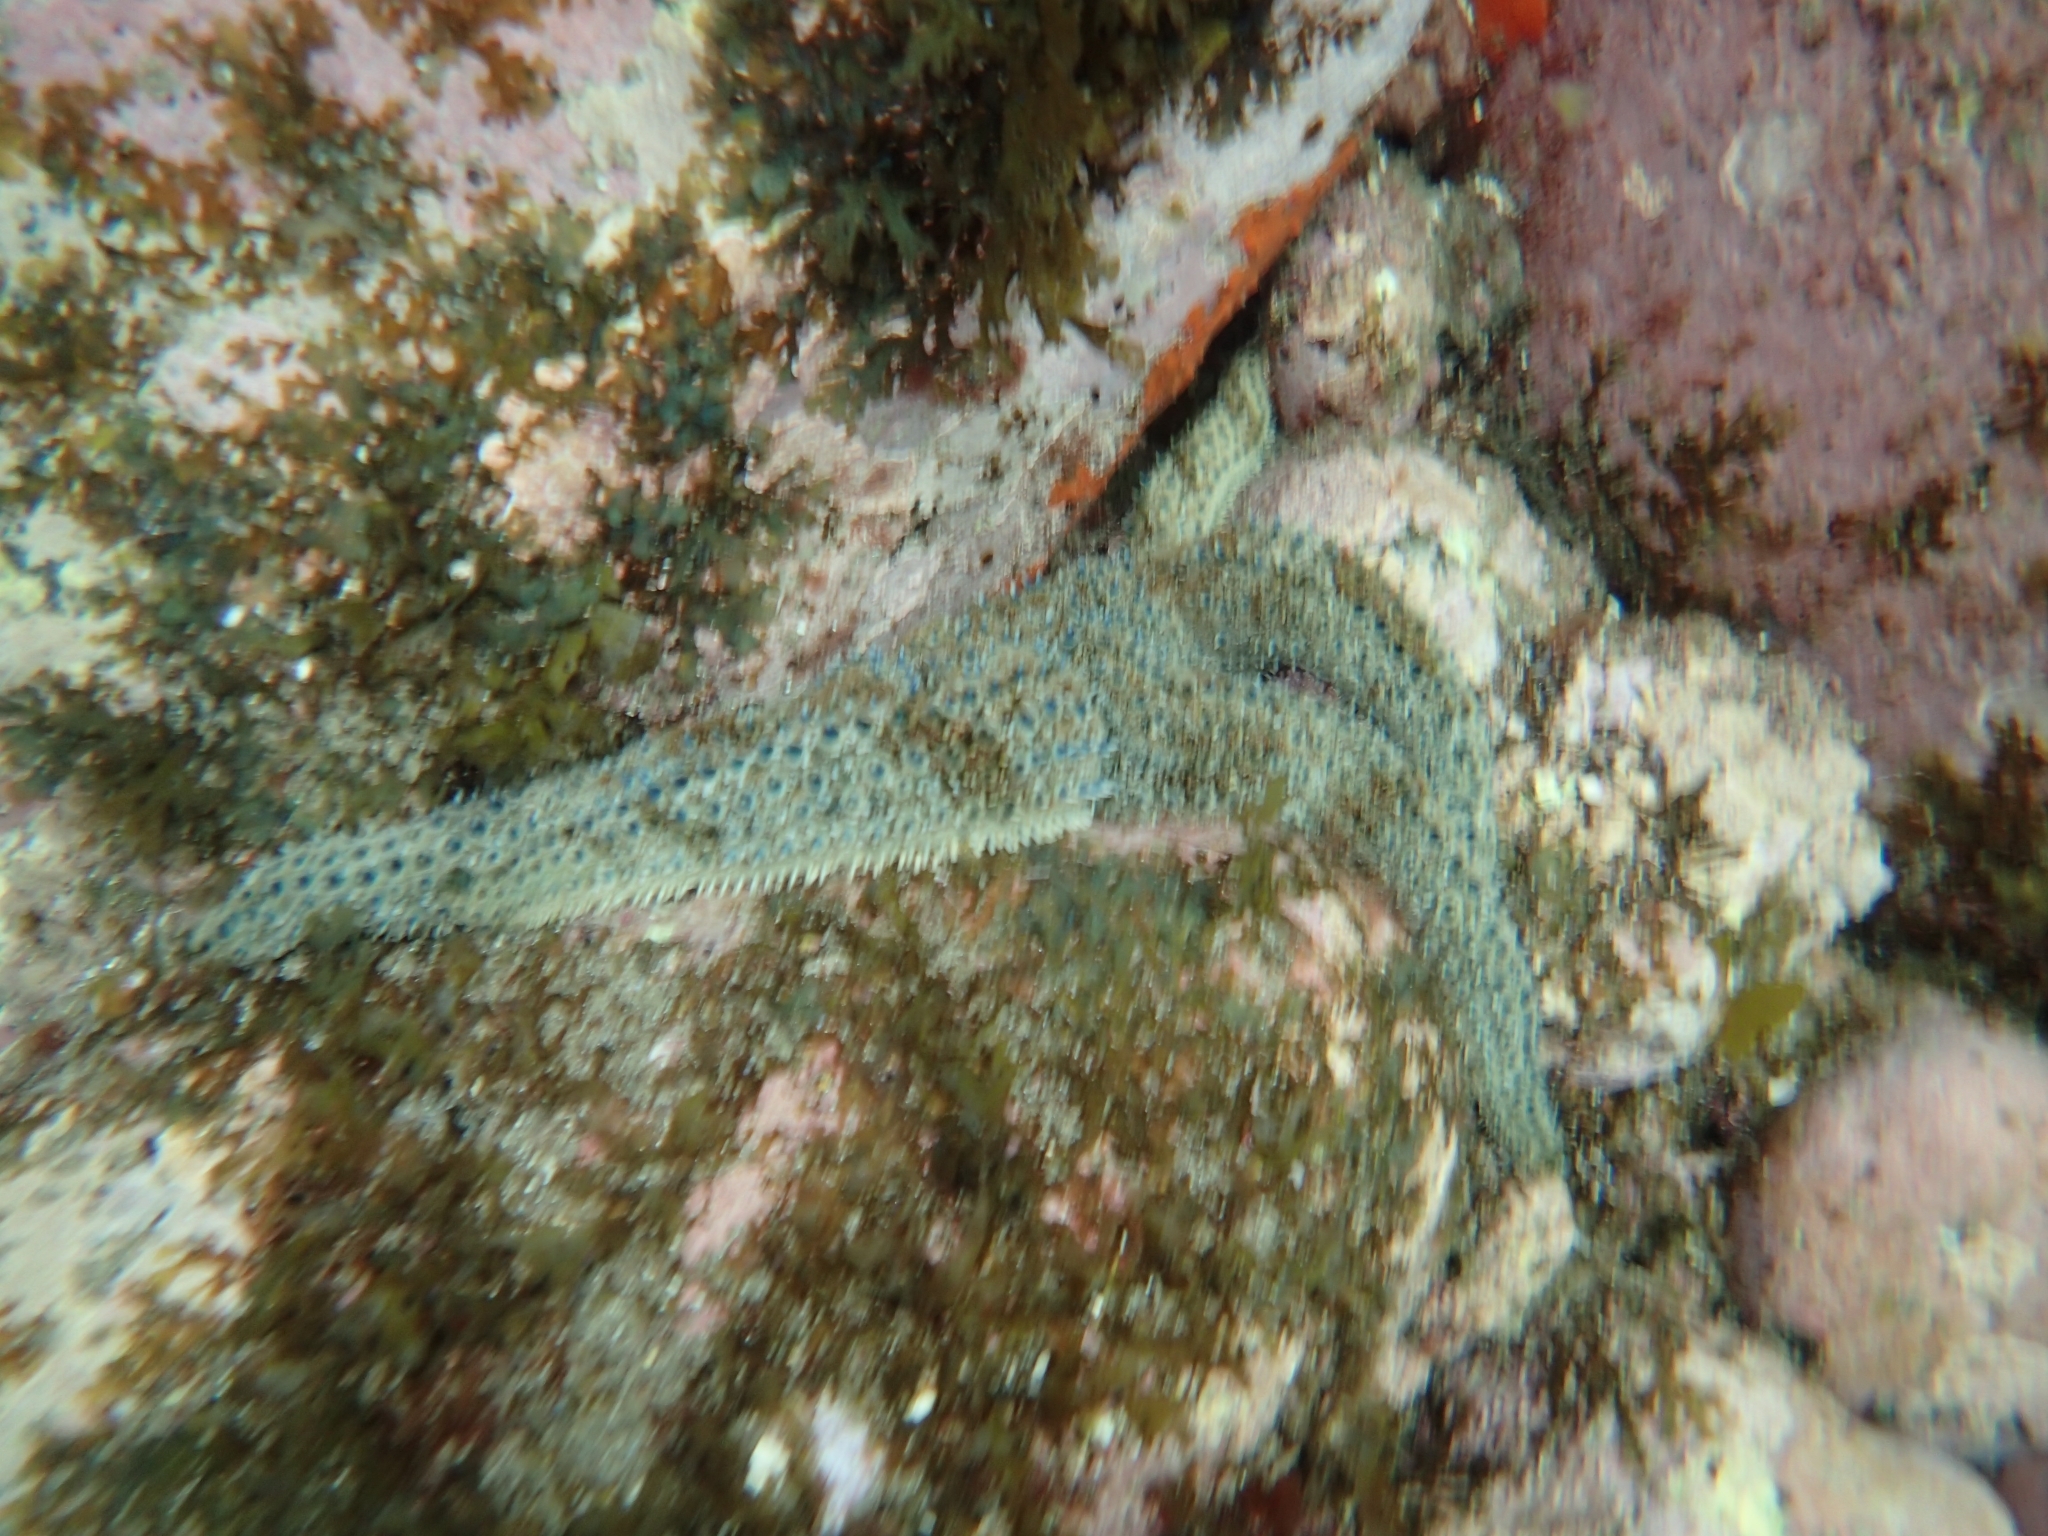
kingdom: Animalia
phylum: Echinodermata
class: Asteroidea
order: Forcipulatida
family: Asteriidae
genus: Coscinasterias
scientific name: Coscinasterias muricata
